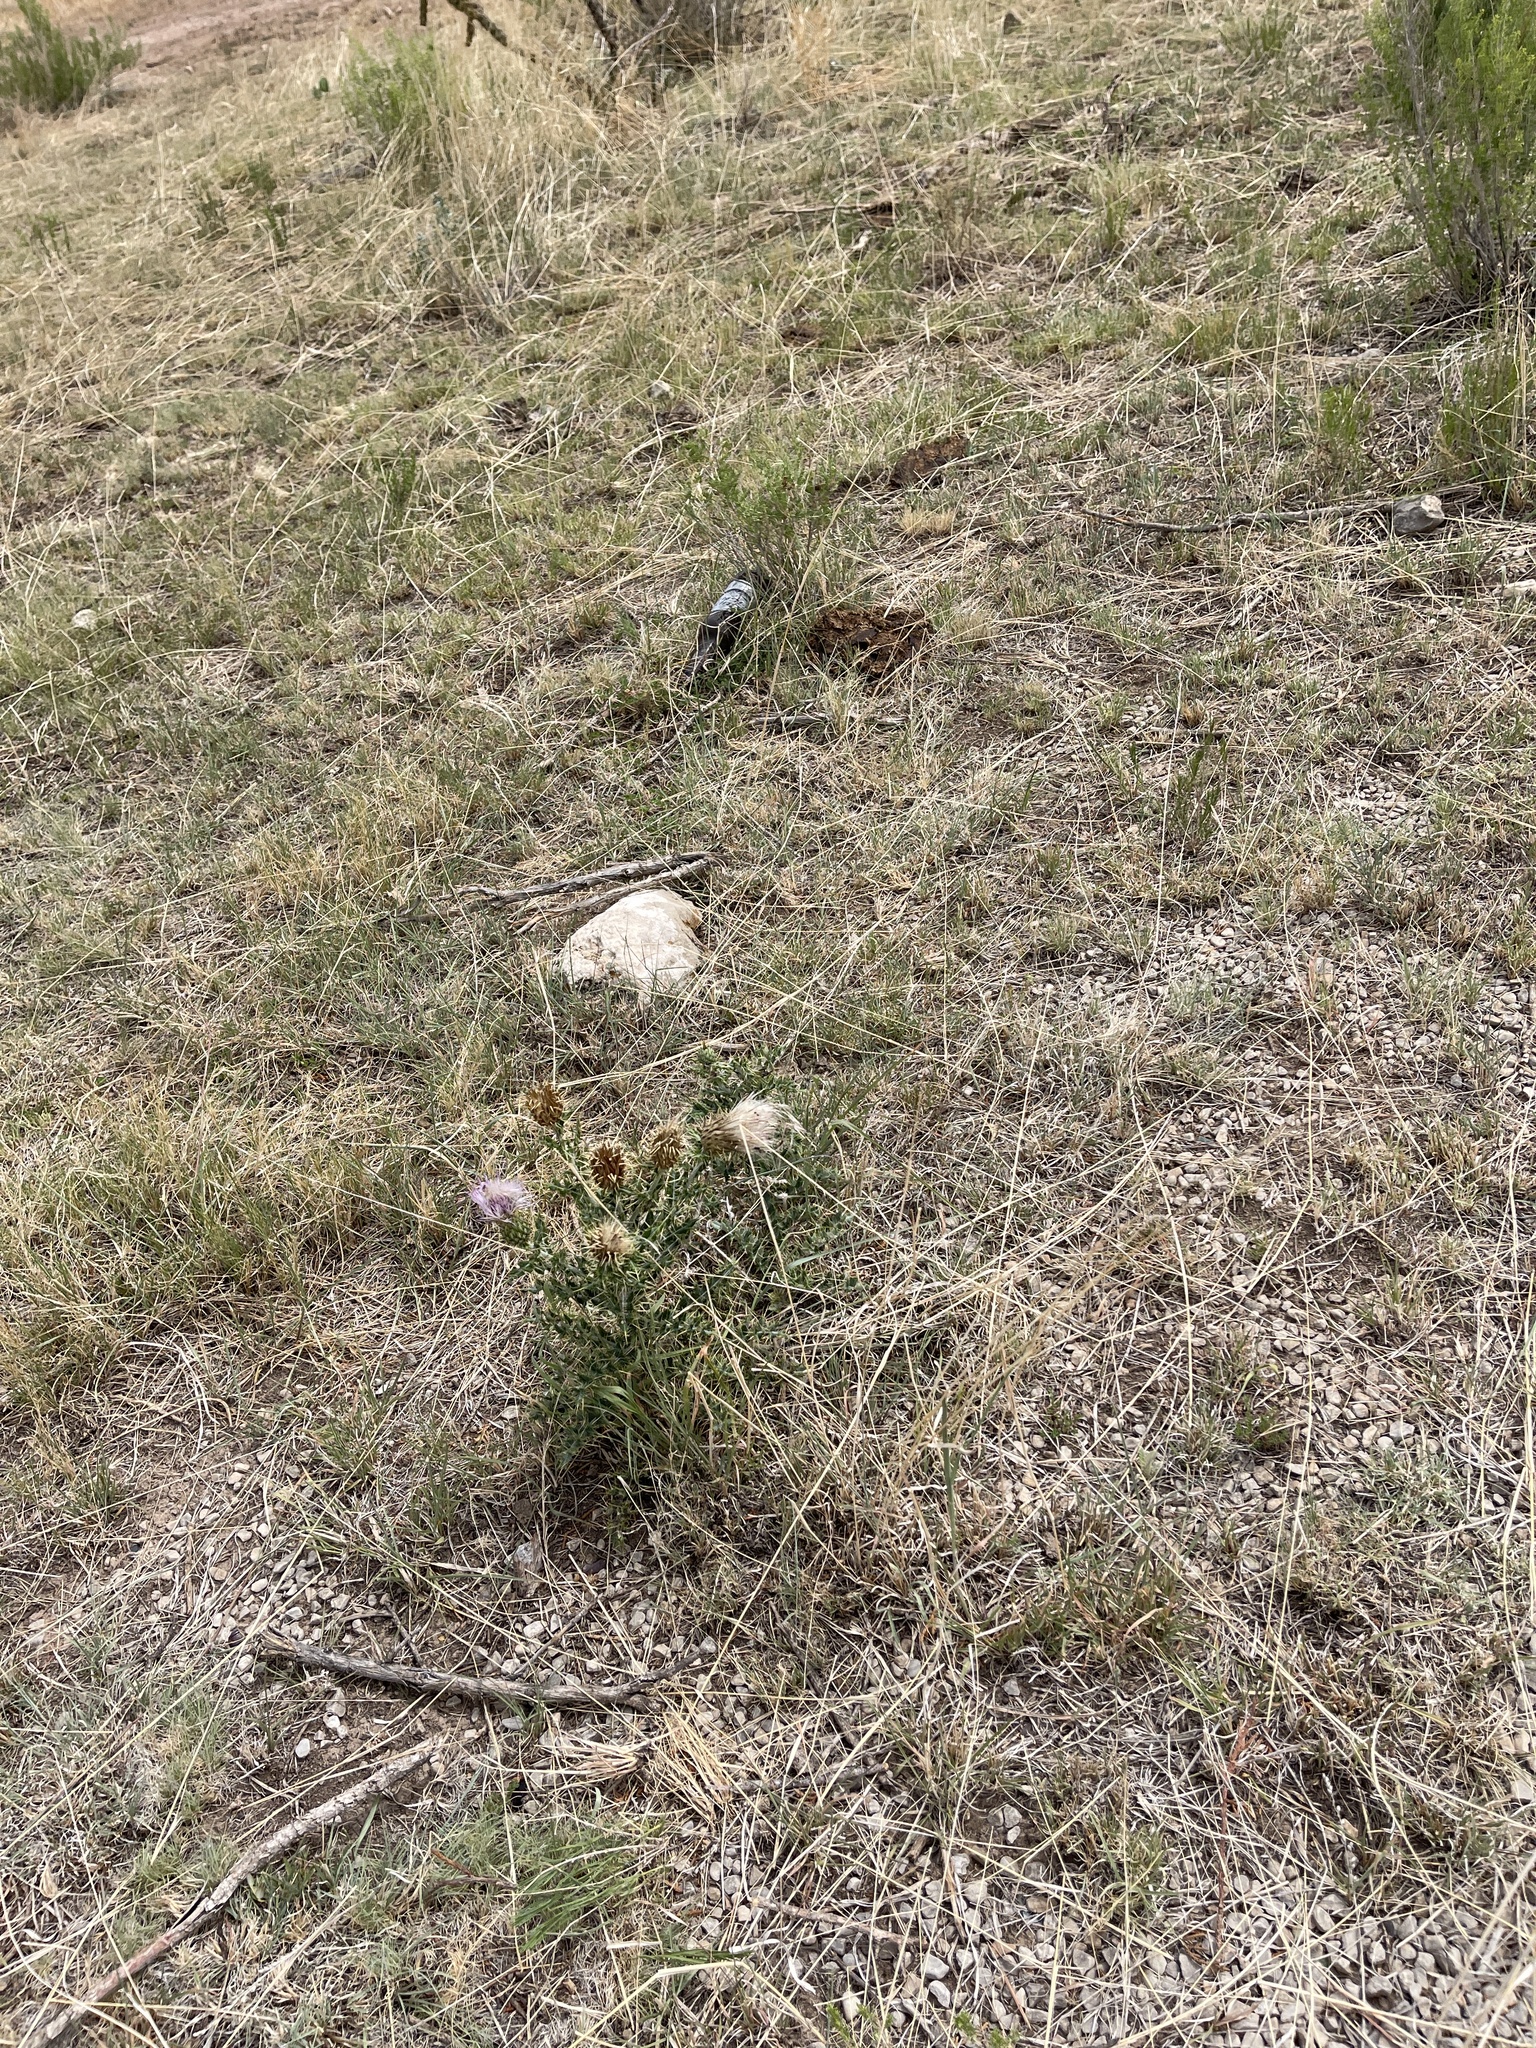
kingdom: Plantae
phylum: Tracheophyta
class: Magnoliopsida
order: Asterales
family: Asteraceae
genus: Cirsium
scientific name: Cirsium ochrocentrum
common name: Yellow-spine thistle
